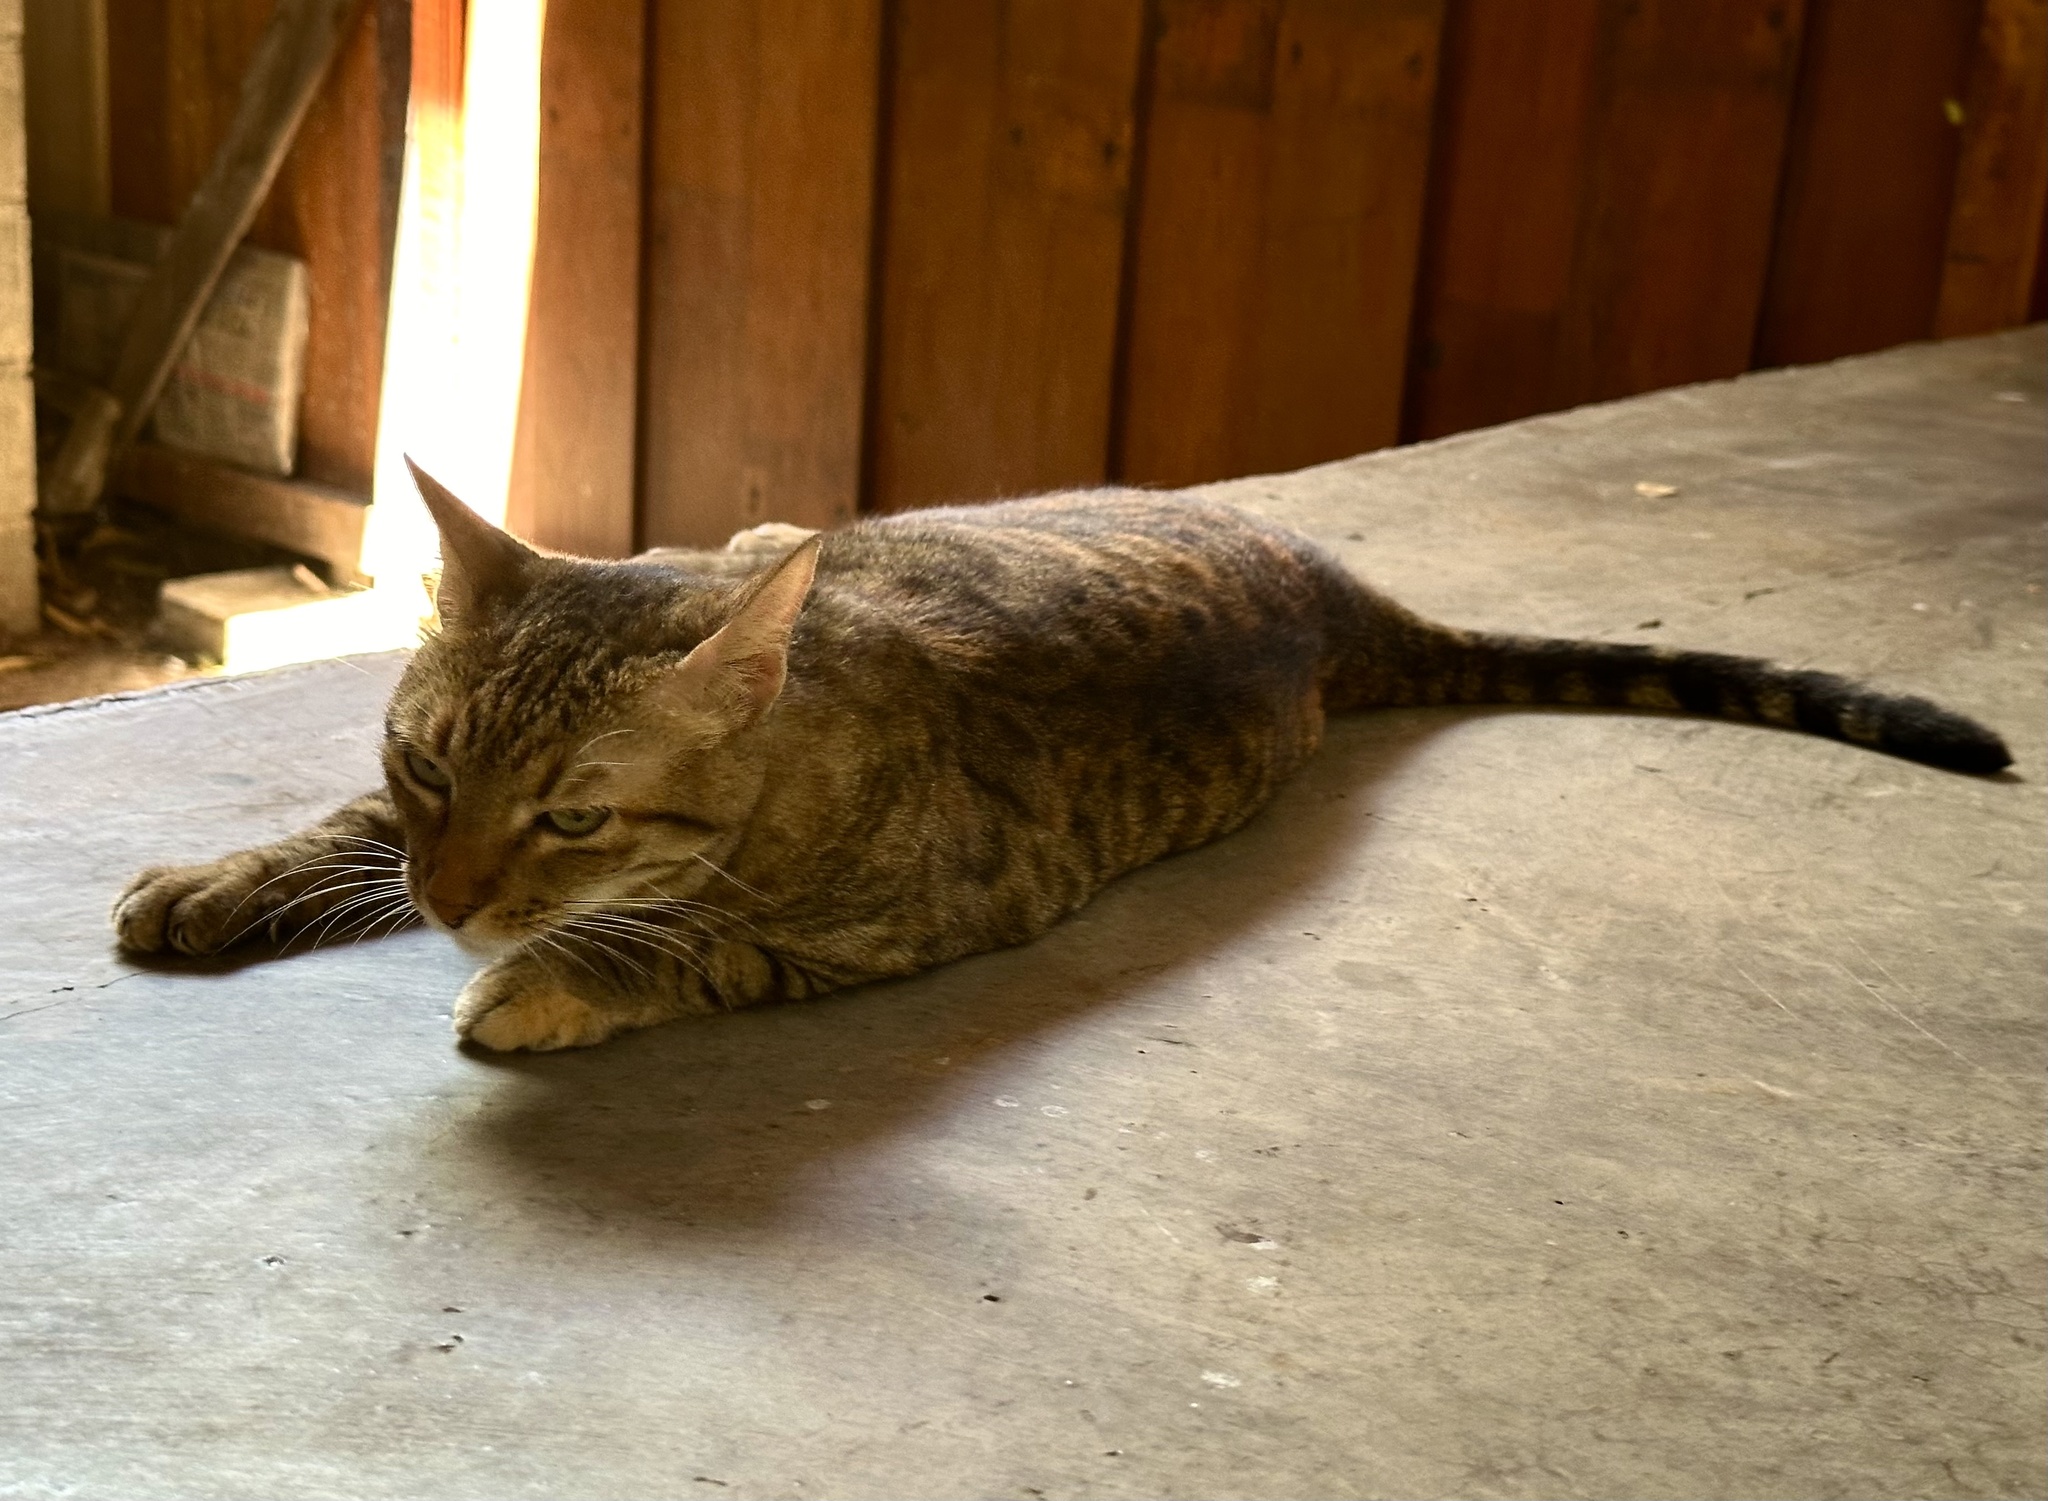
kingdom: Animalia
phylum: Chordata
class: Mammalia
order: Carnivora
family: Felidae
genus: Felis
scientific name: Felis catus
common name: Domestic cat
